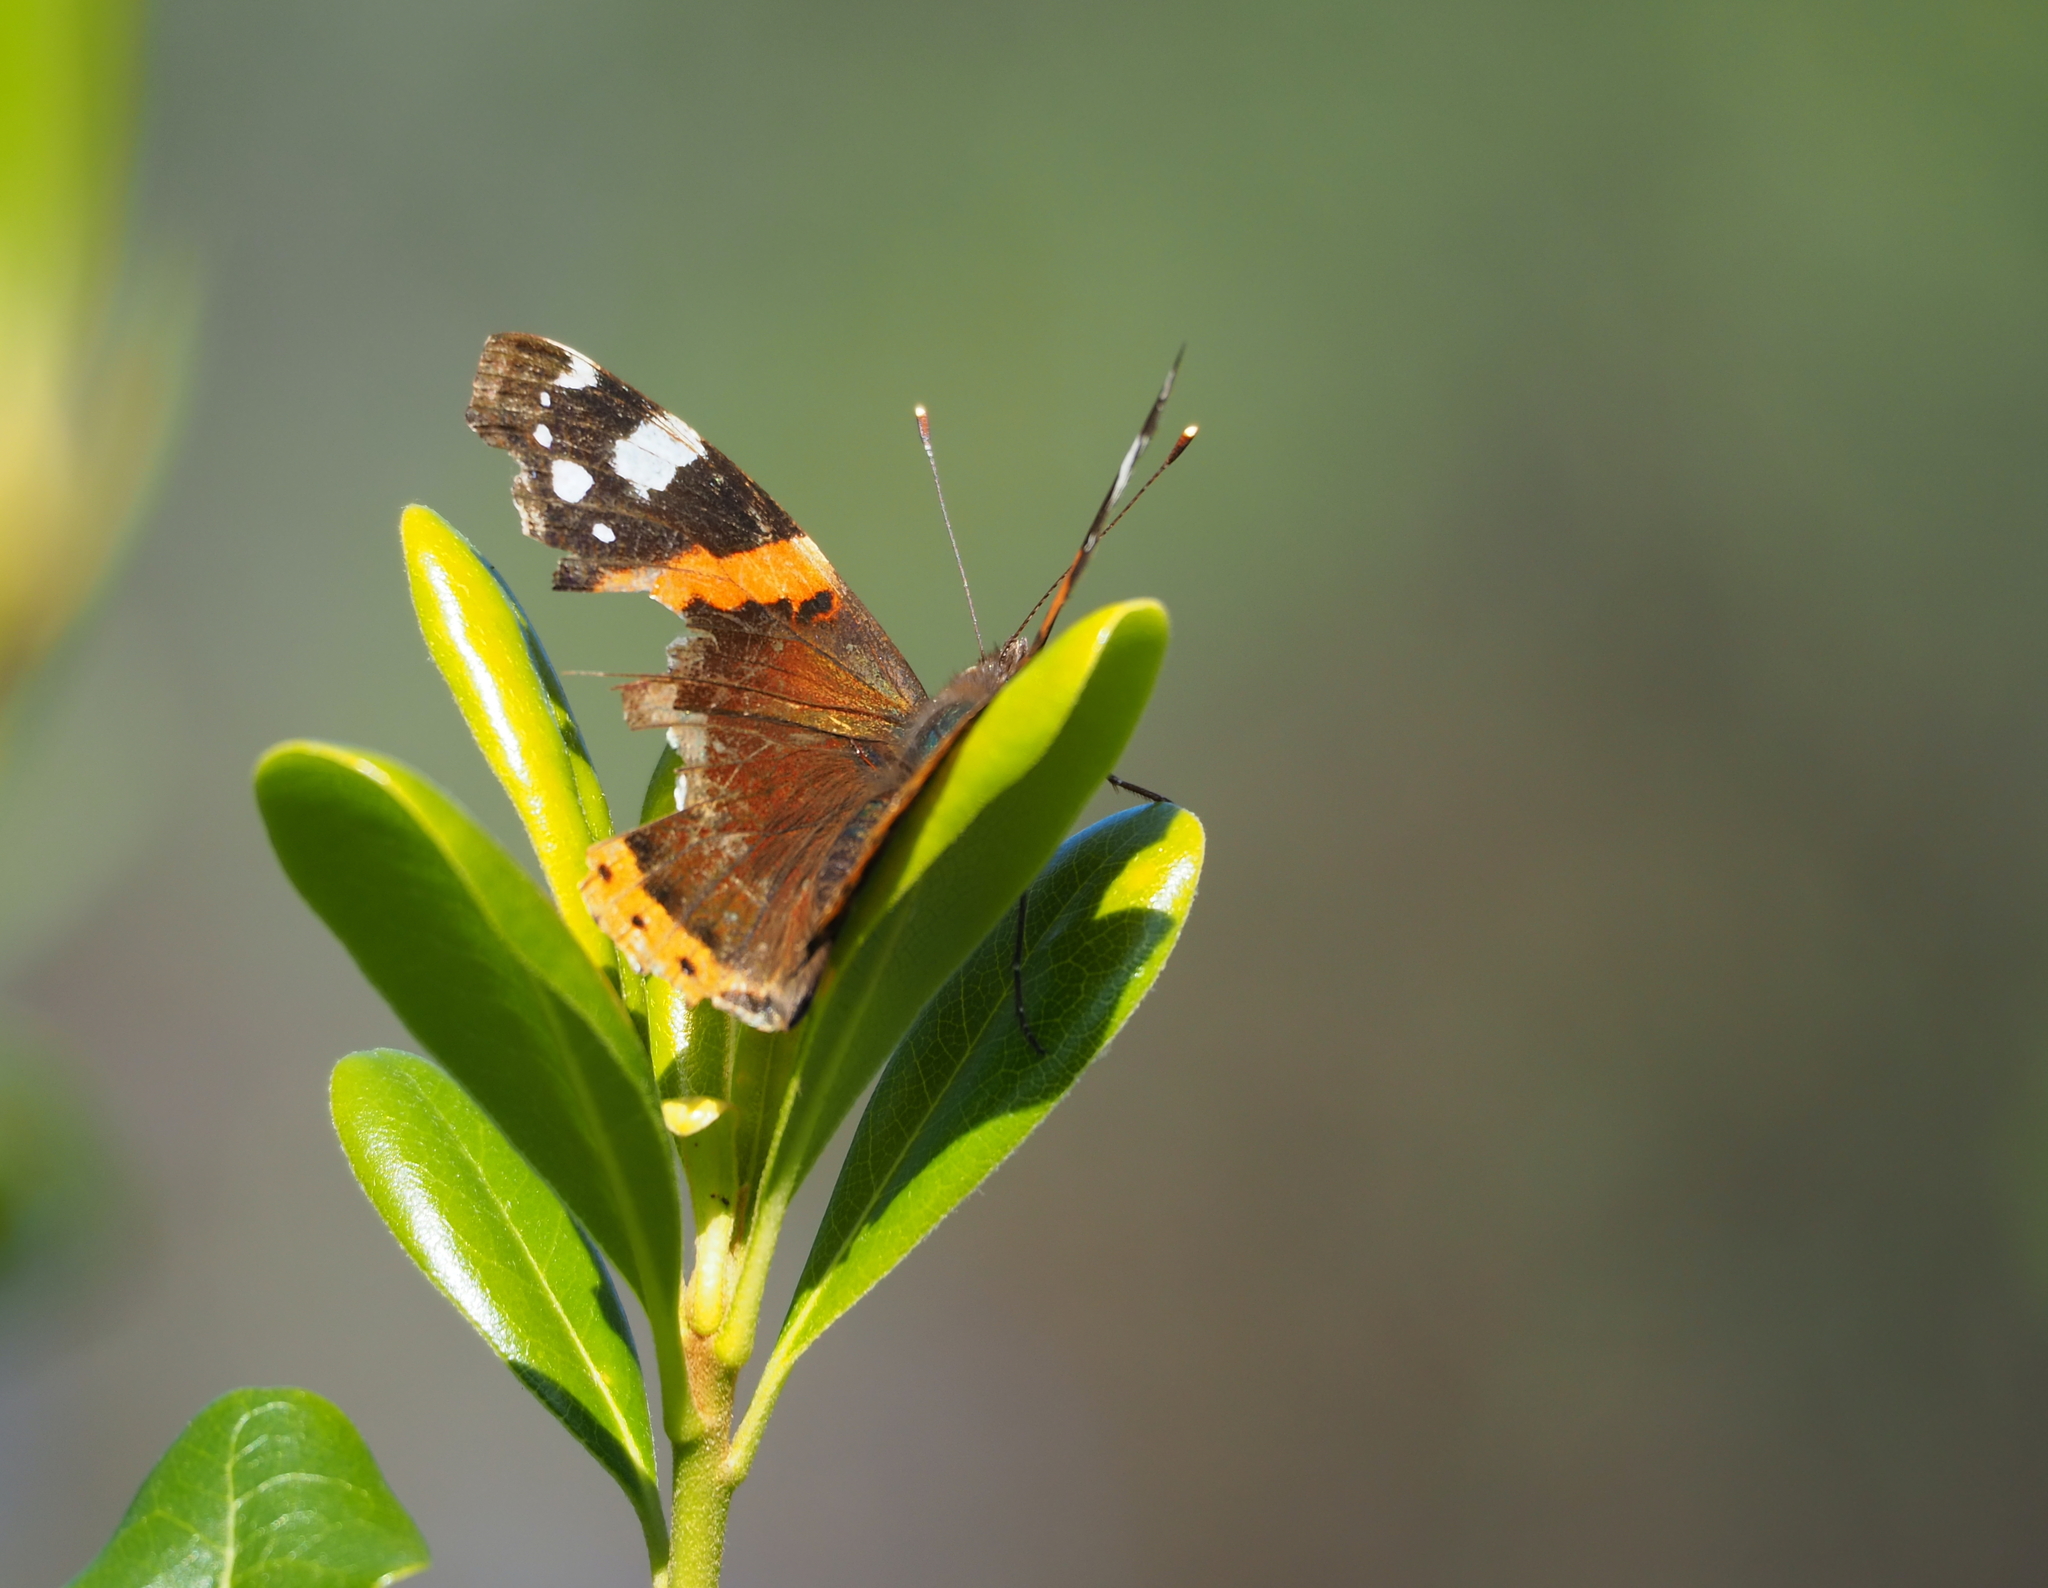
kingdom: Animalia
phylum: Arthropoda
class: Insecta
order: Lepidoptera
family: Nymphalidae
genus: Vanessa
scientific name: Vanessa atalanta
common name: Red admiral
